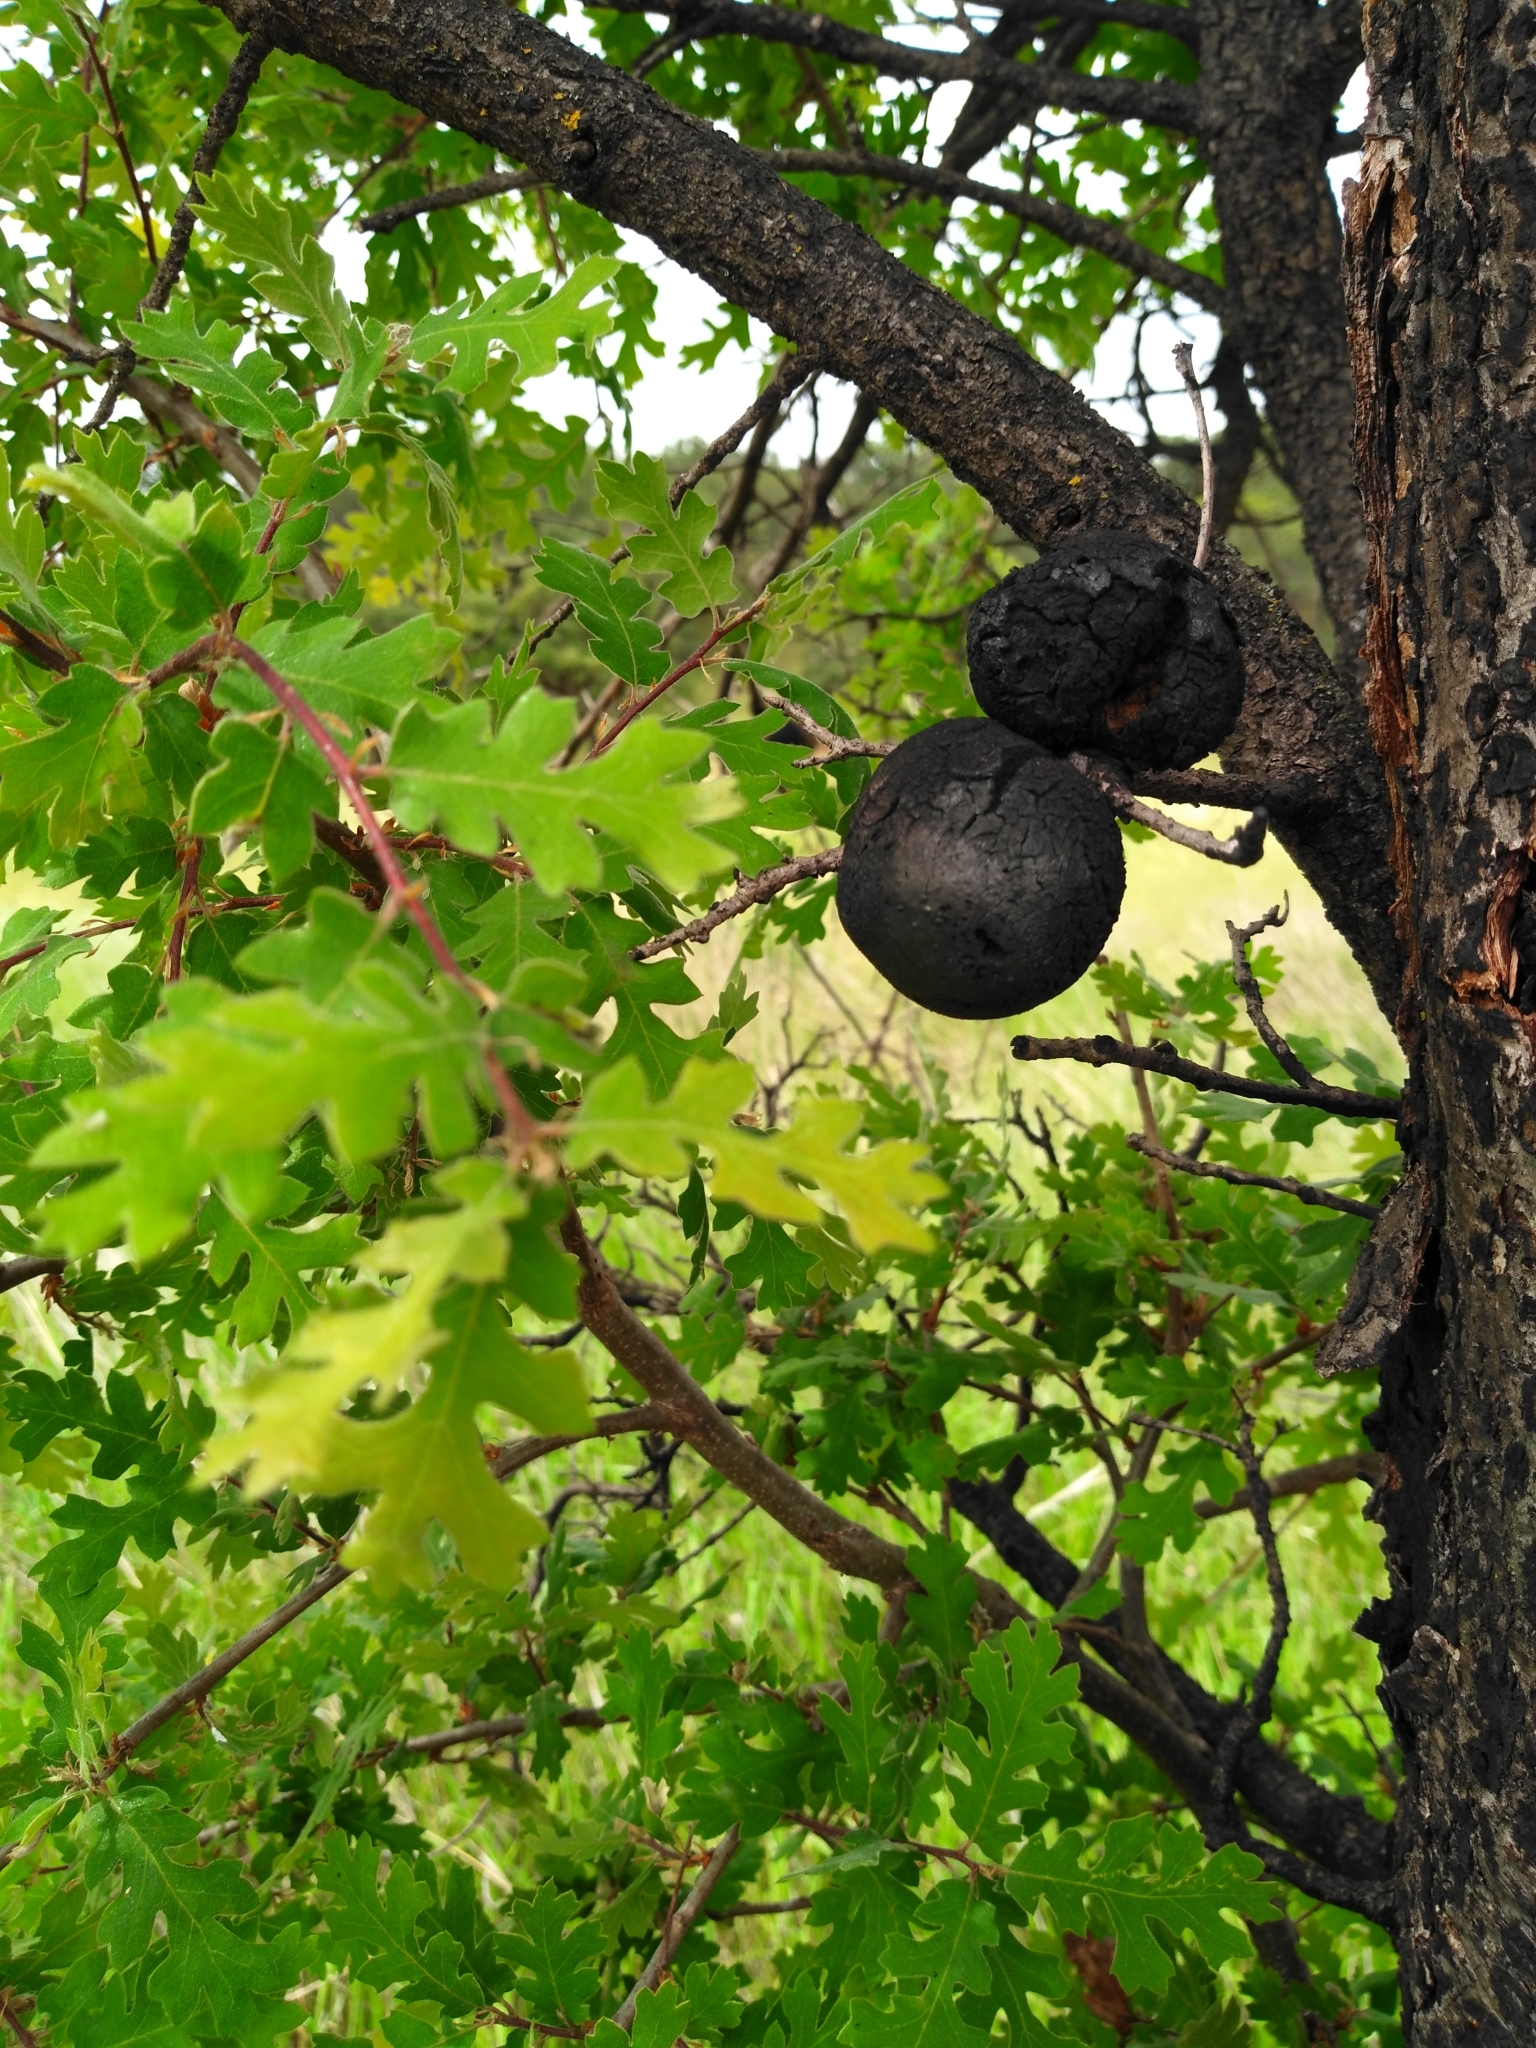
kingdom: Animalia
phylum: Arthropoda
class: Insecta
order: Hymenoptera
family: Cynipidae
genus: Andricus
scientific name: Andricus quercuscalifornicus
